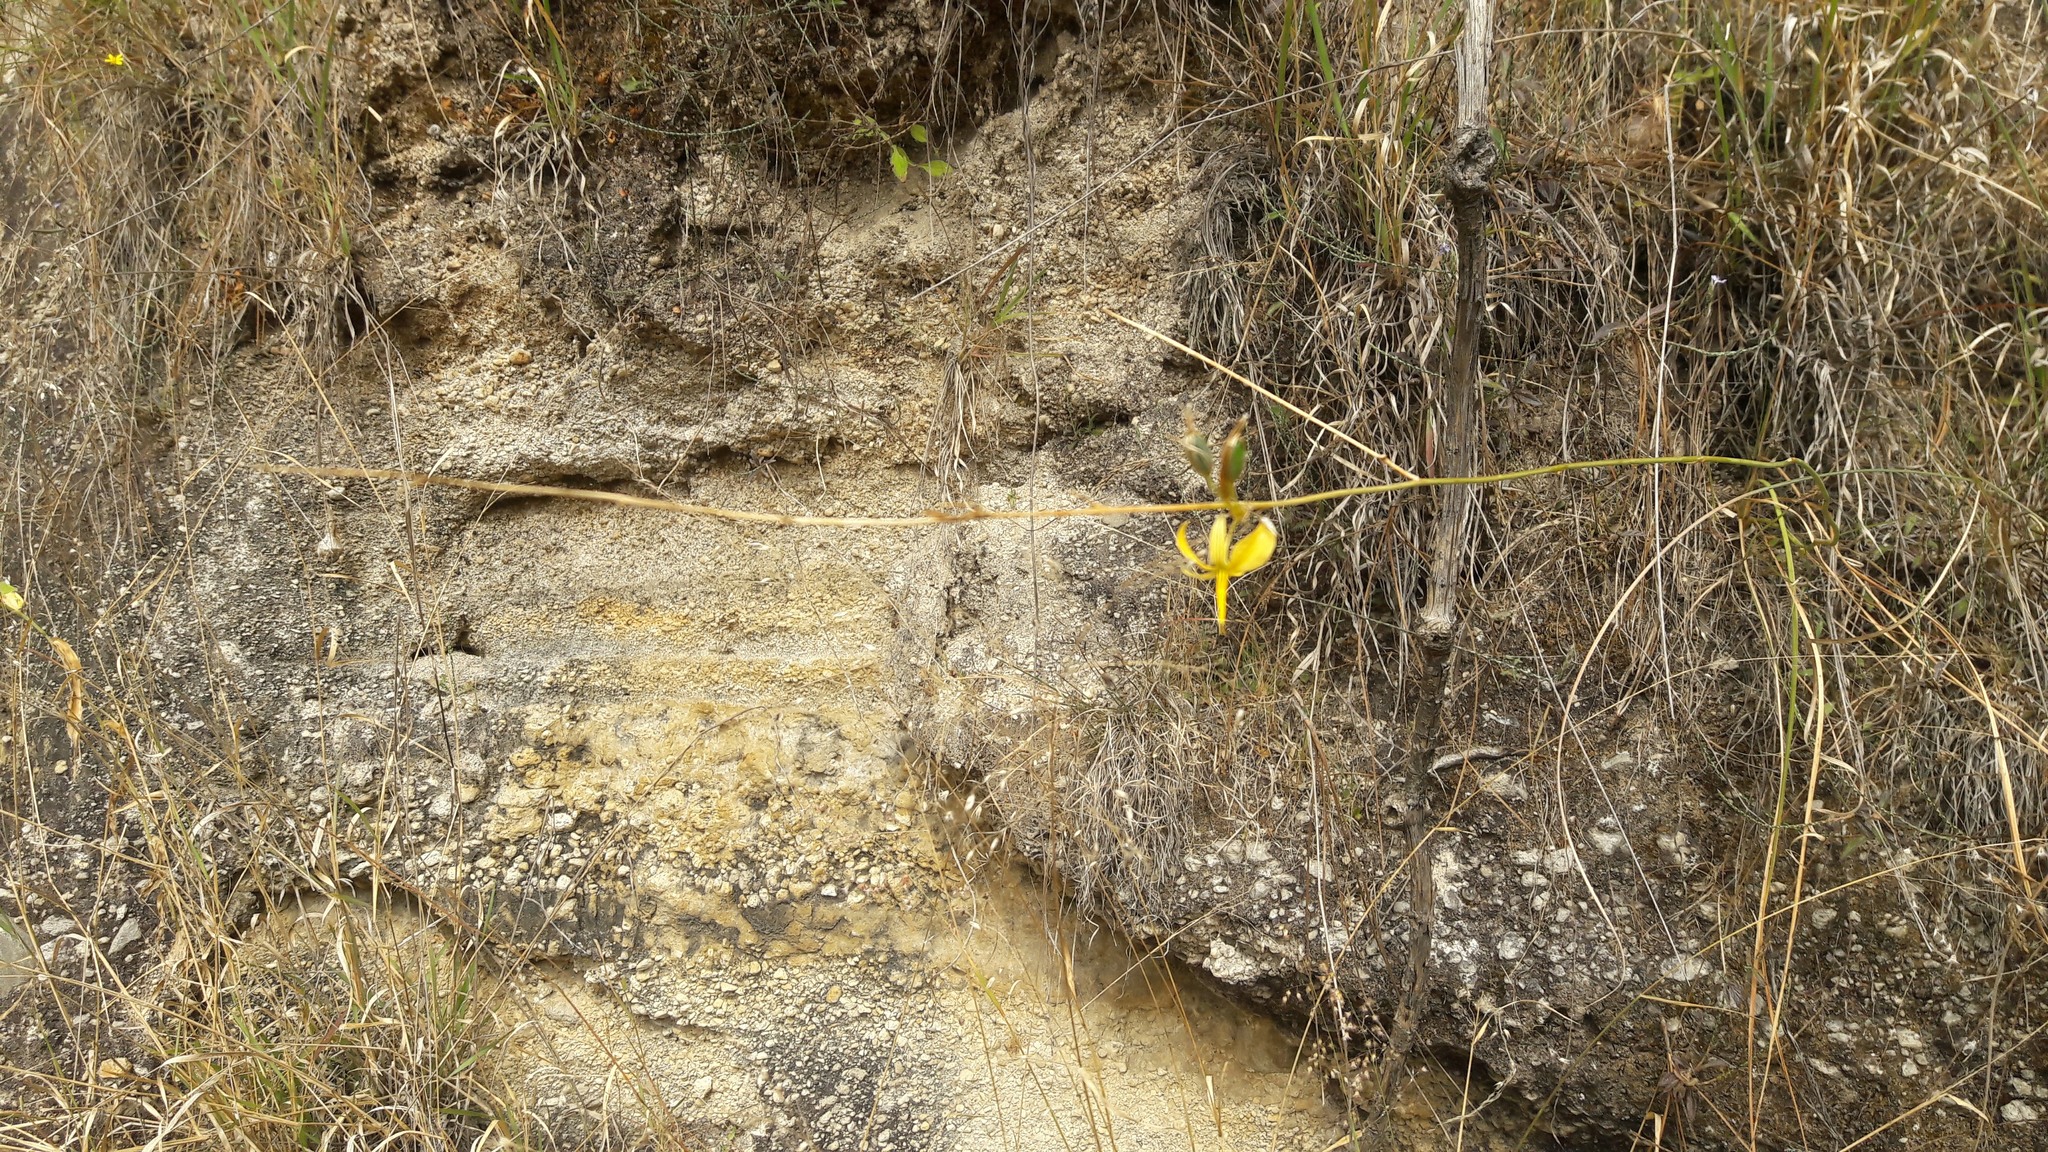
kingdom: Plantae
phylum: Tracheophyta
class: Liliopsida
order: Asparagales
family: Asparagaceae
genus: Echeandia
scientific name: Echeandia flexuosa
